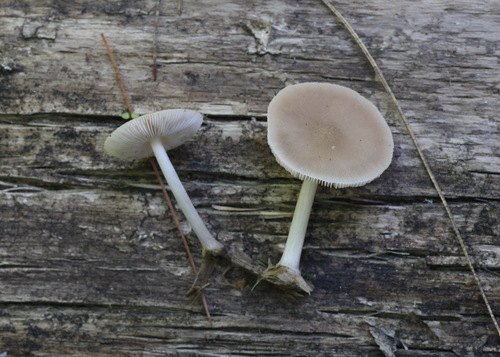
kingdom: Fungi
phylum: Basidiomycota
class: Agaricomycetes
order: Agaricales
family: Pluteaceae
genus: Pluteus
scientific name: Pluteus semibulbosus
